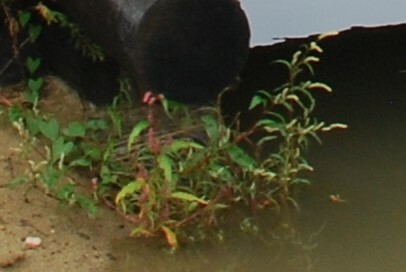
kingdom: Plantae
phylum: Tracheophyta
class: Magnoliopsida
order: Caryophyllales
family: Polygonaceae
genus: Persicaria
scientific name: Persicaria lapathifolia
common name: Curlytop knotweed
